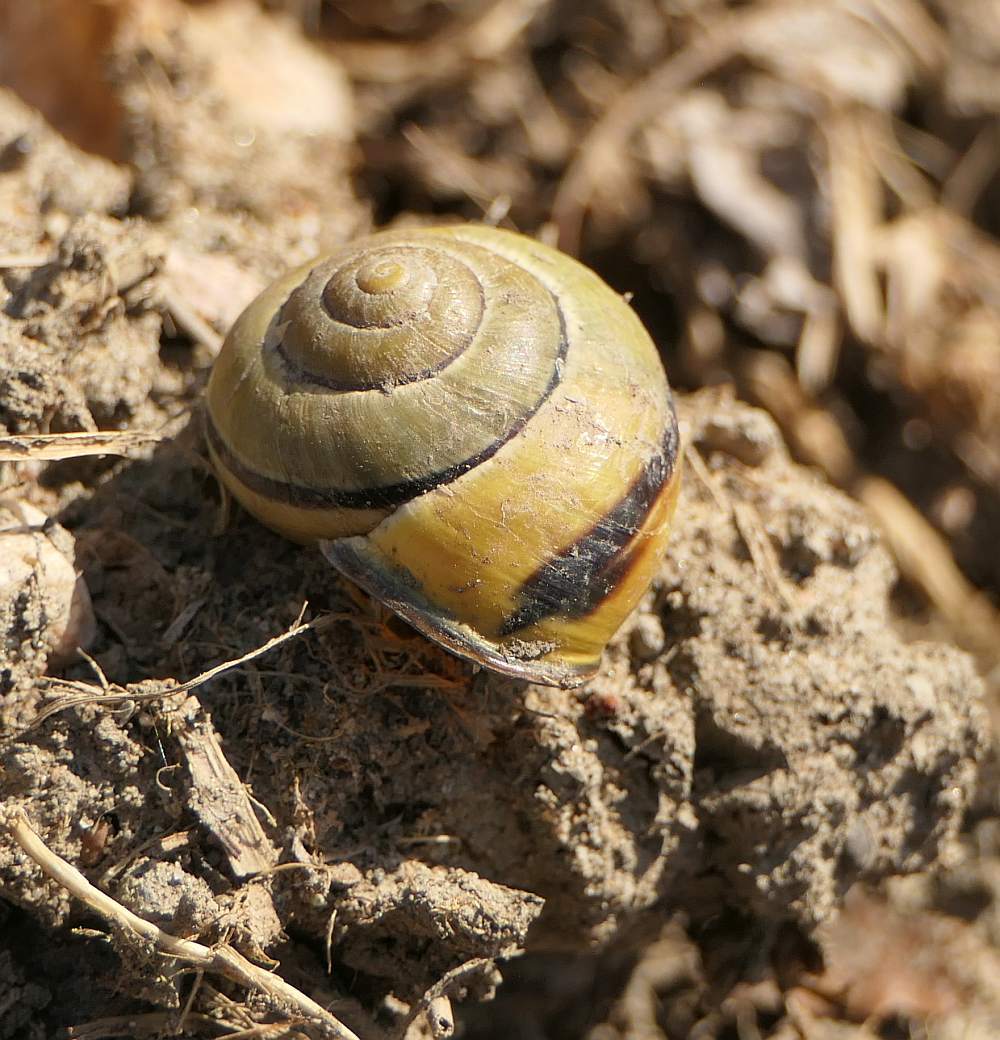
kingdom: Animalia
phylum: Mollusca
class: Gastropoda
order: Stylommatophora
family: Helicidae
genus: Cepaea
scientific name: Cepaea nemoralis
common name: Grovesnail
